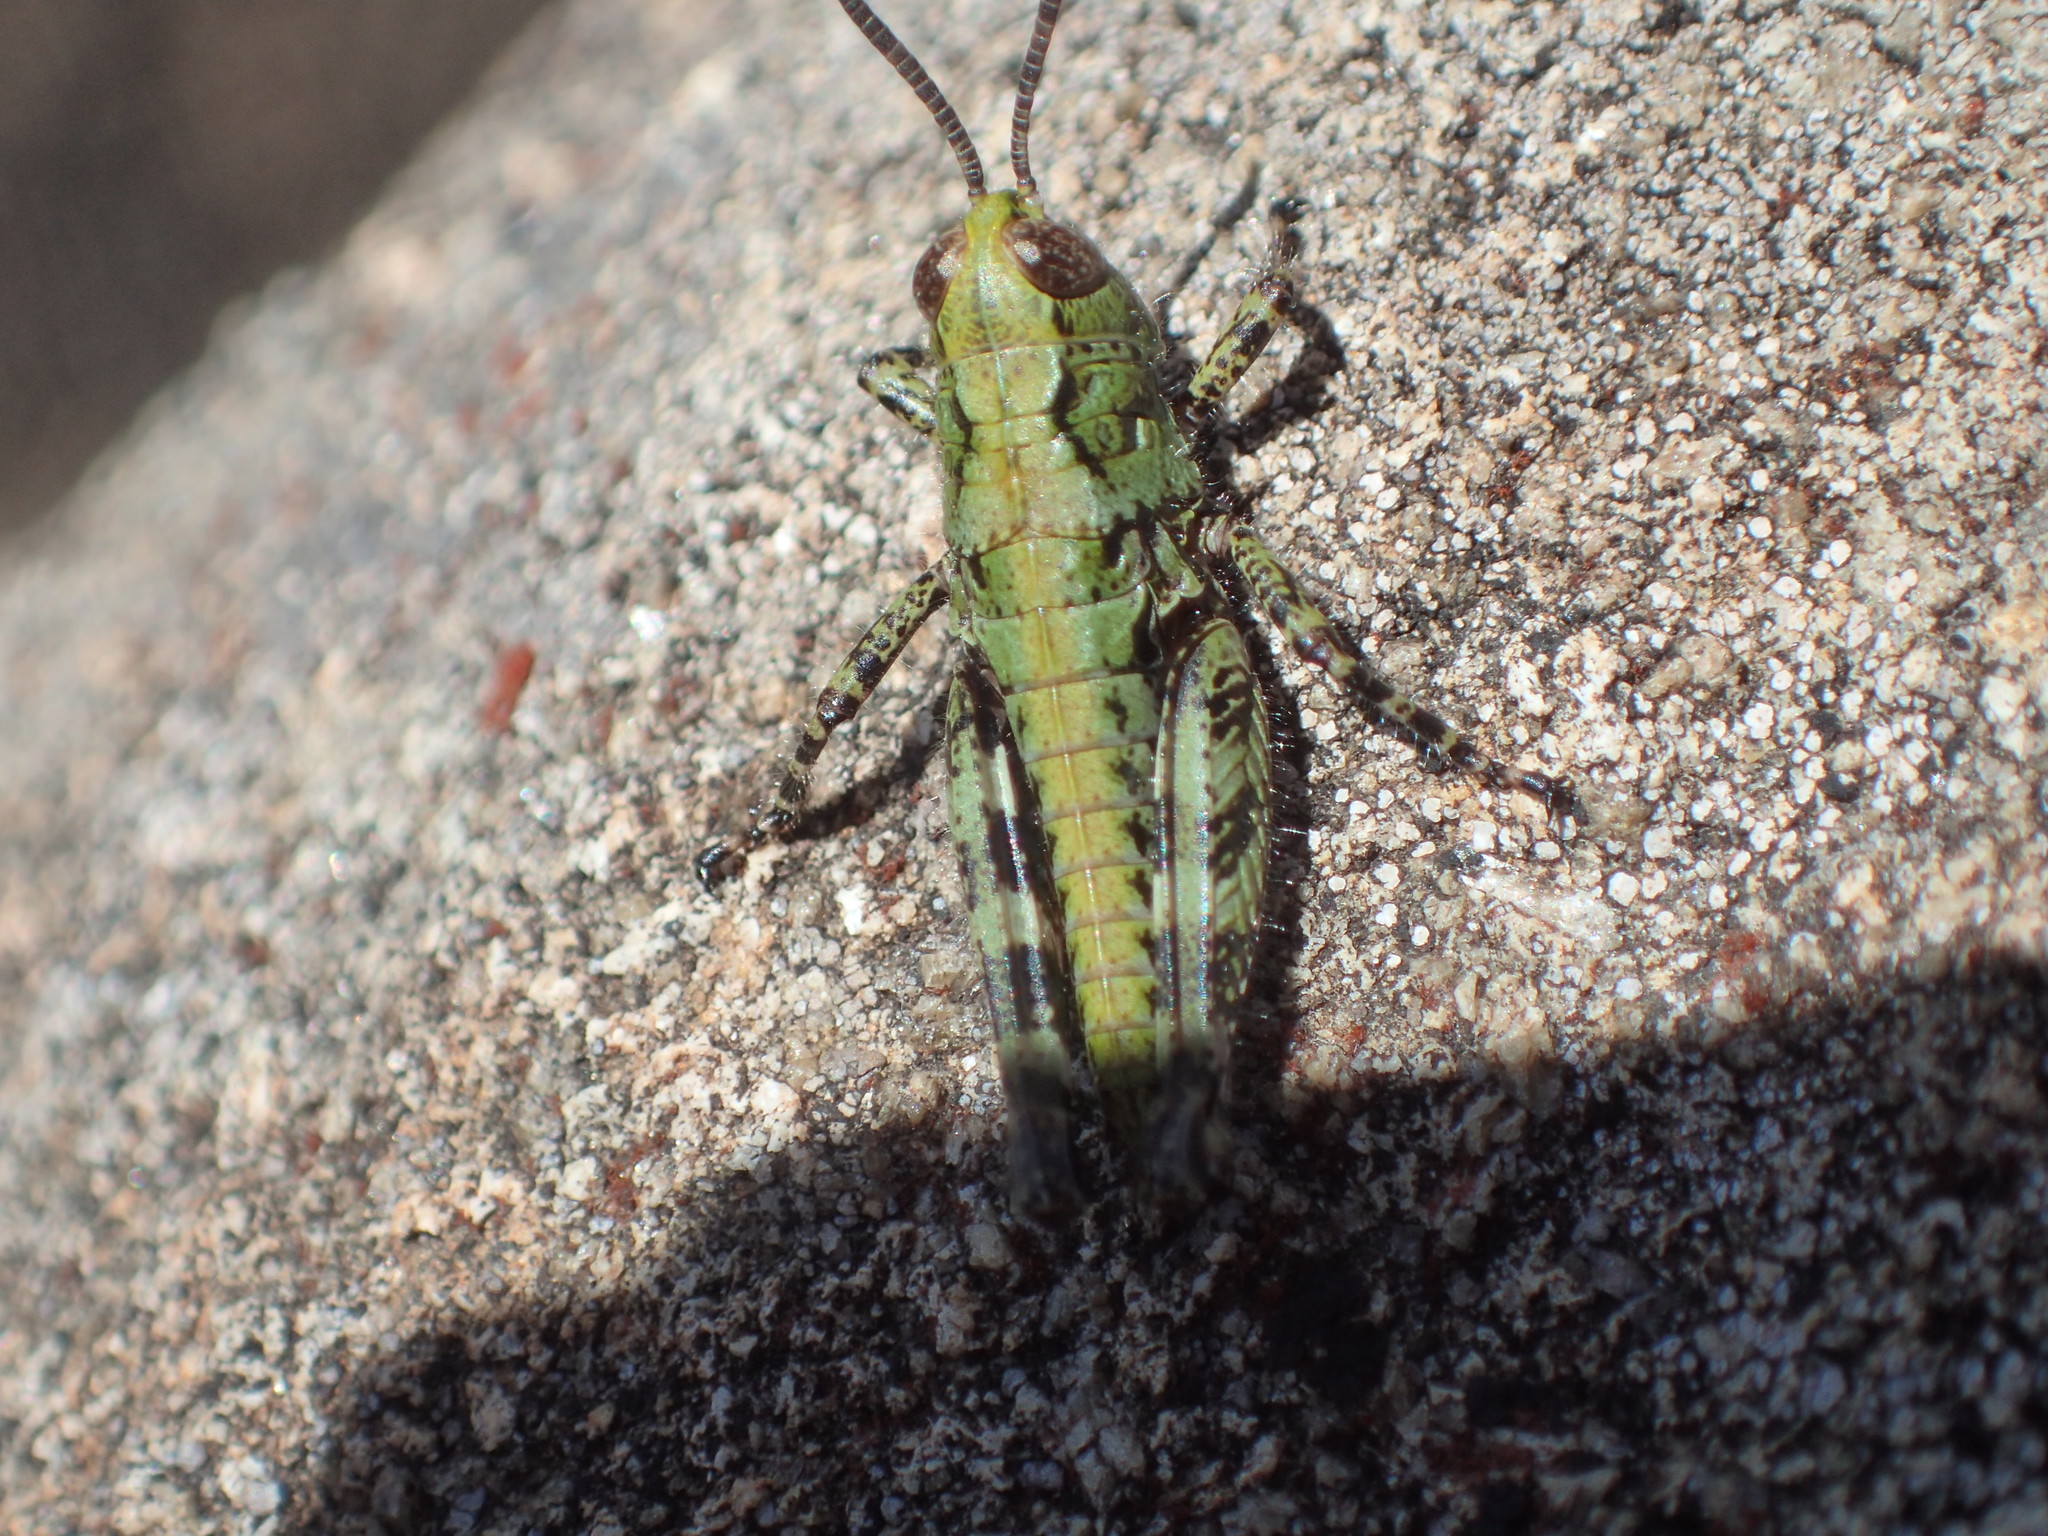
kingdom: Animalia
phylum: Arthropoda
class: Insecta
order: Orthoptera
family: Acrididae
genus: Tasmaniacris
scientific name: Tasmaniacris tasmaniensis
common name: Tasmanian grasshopper
